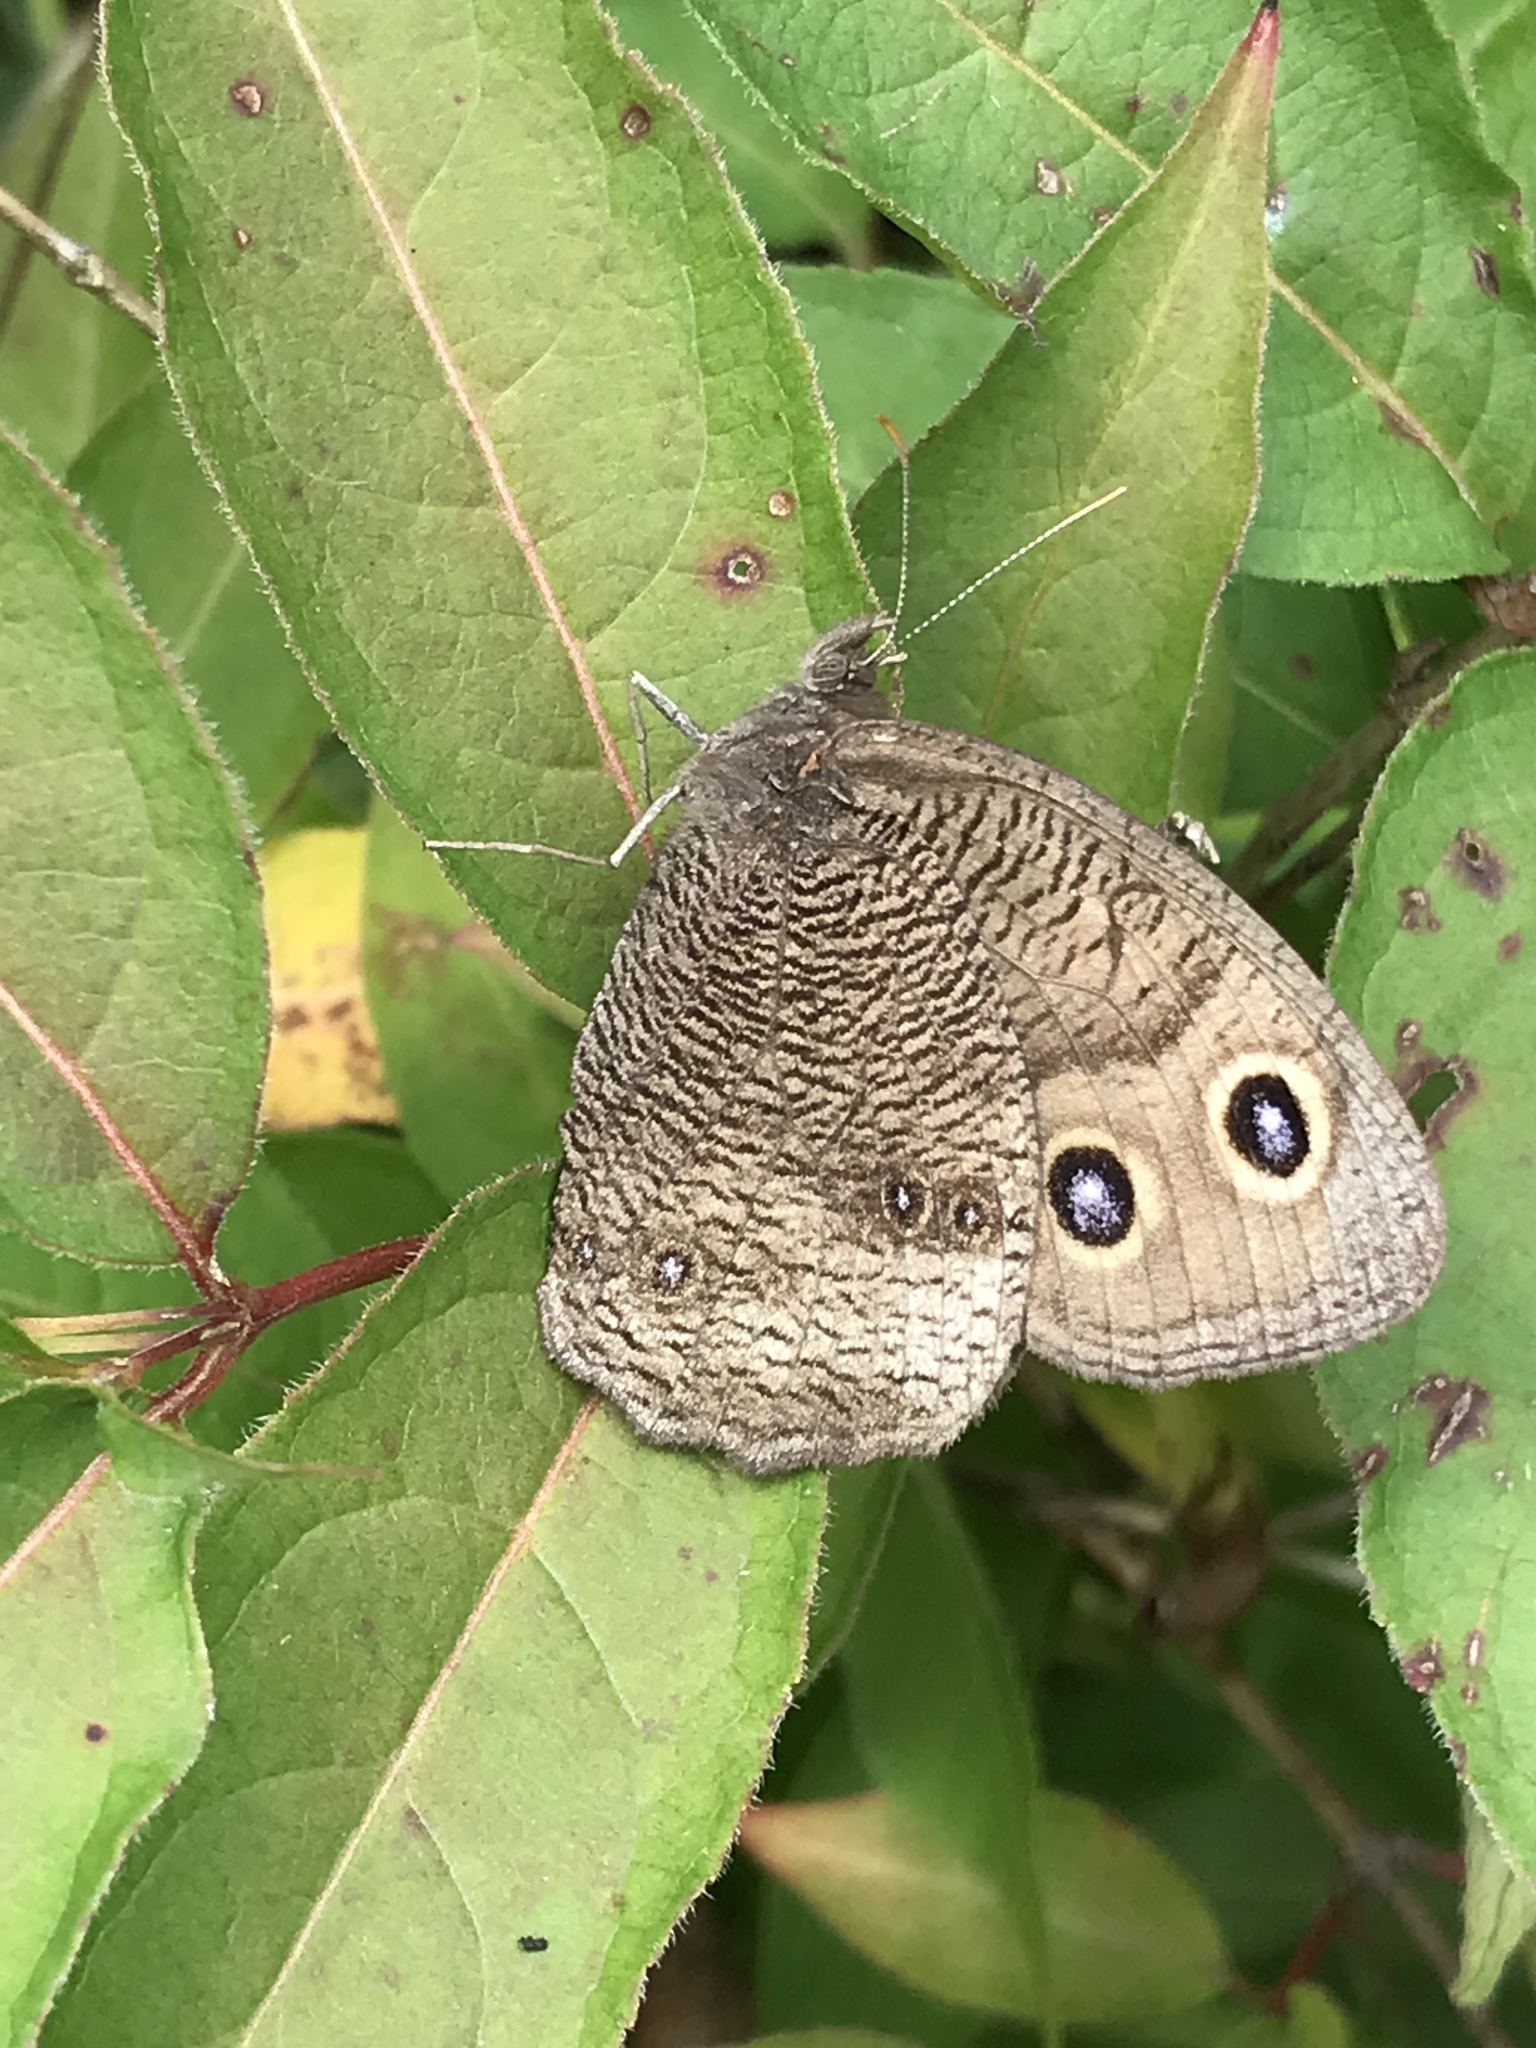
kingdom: Animalia
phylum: Arthropoda
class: Insecta
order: Lepidoptera
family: Nymphalidae
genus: Cercyonis
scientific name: Cercyonis pegala
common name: Common wood-nymph
